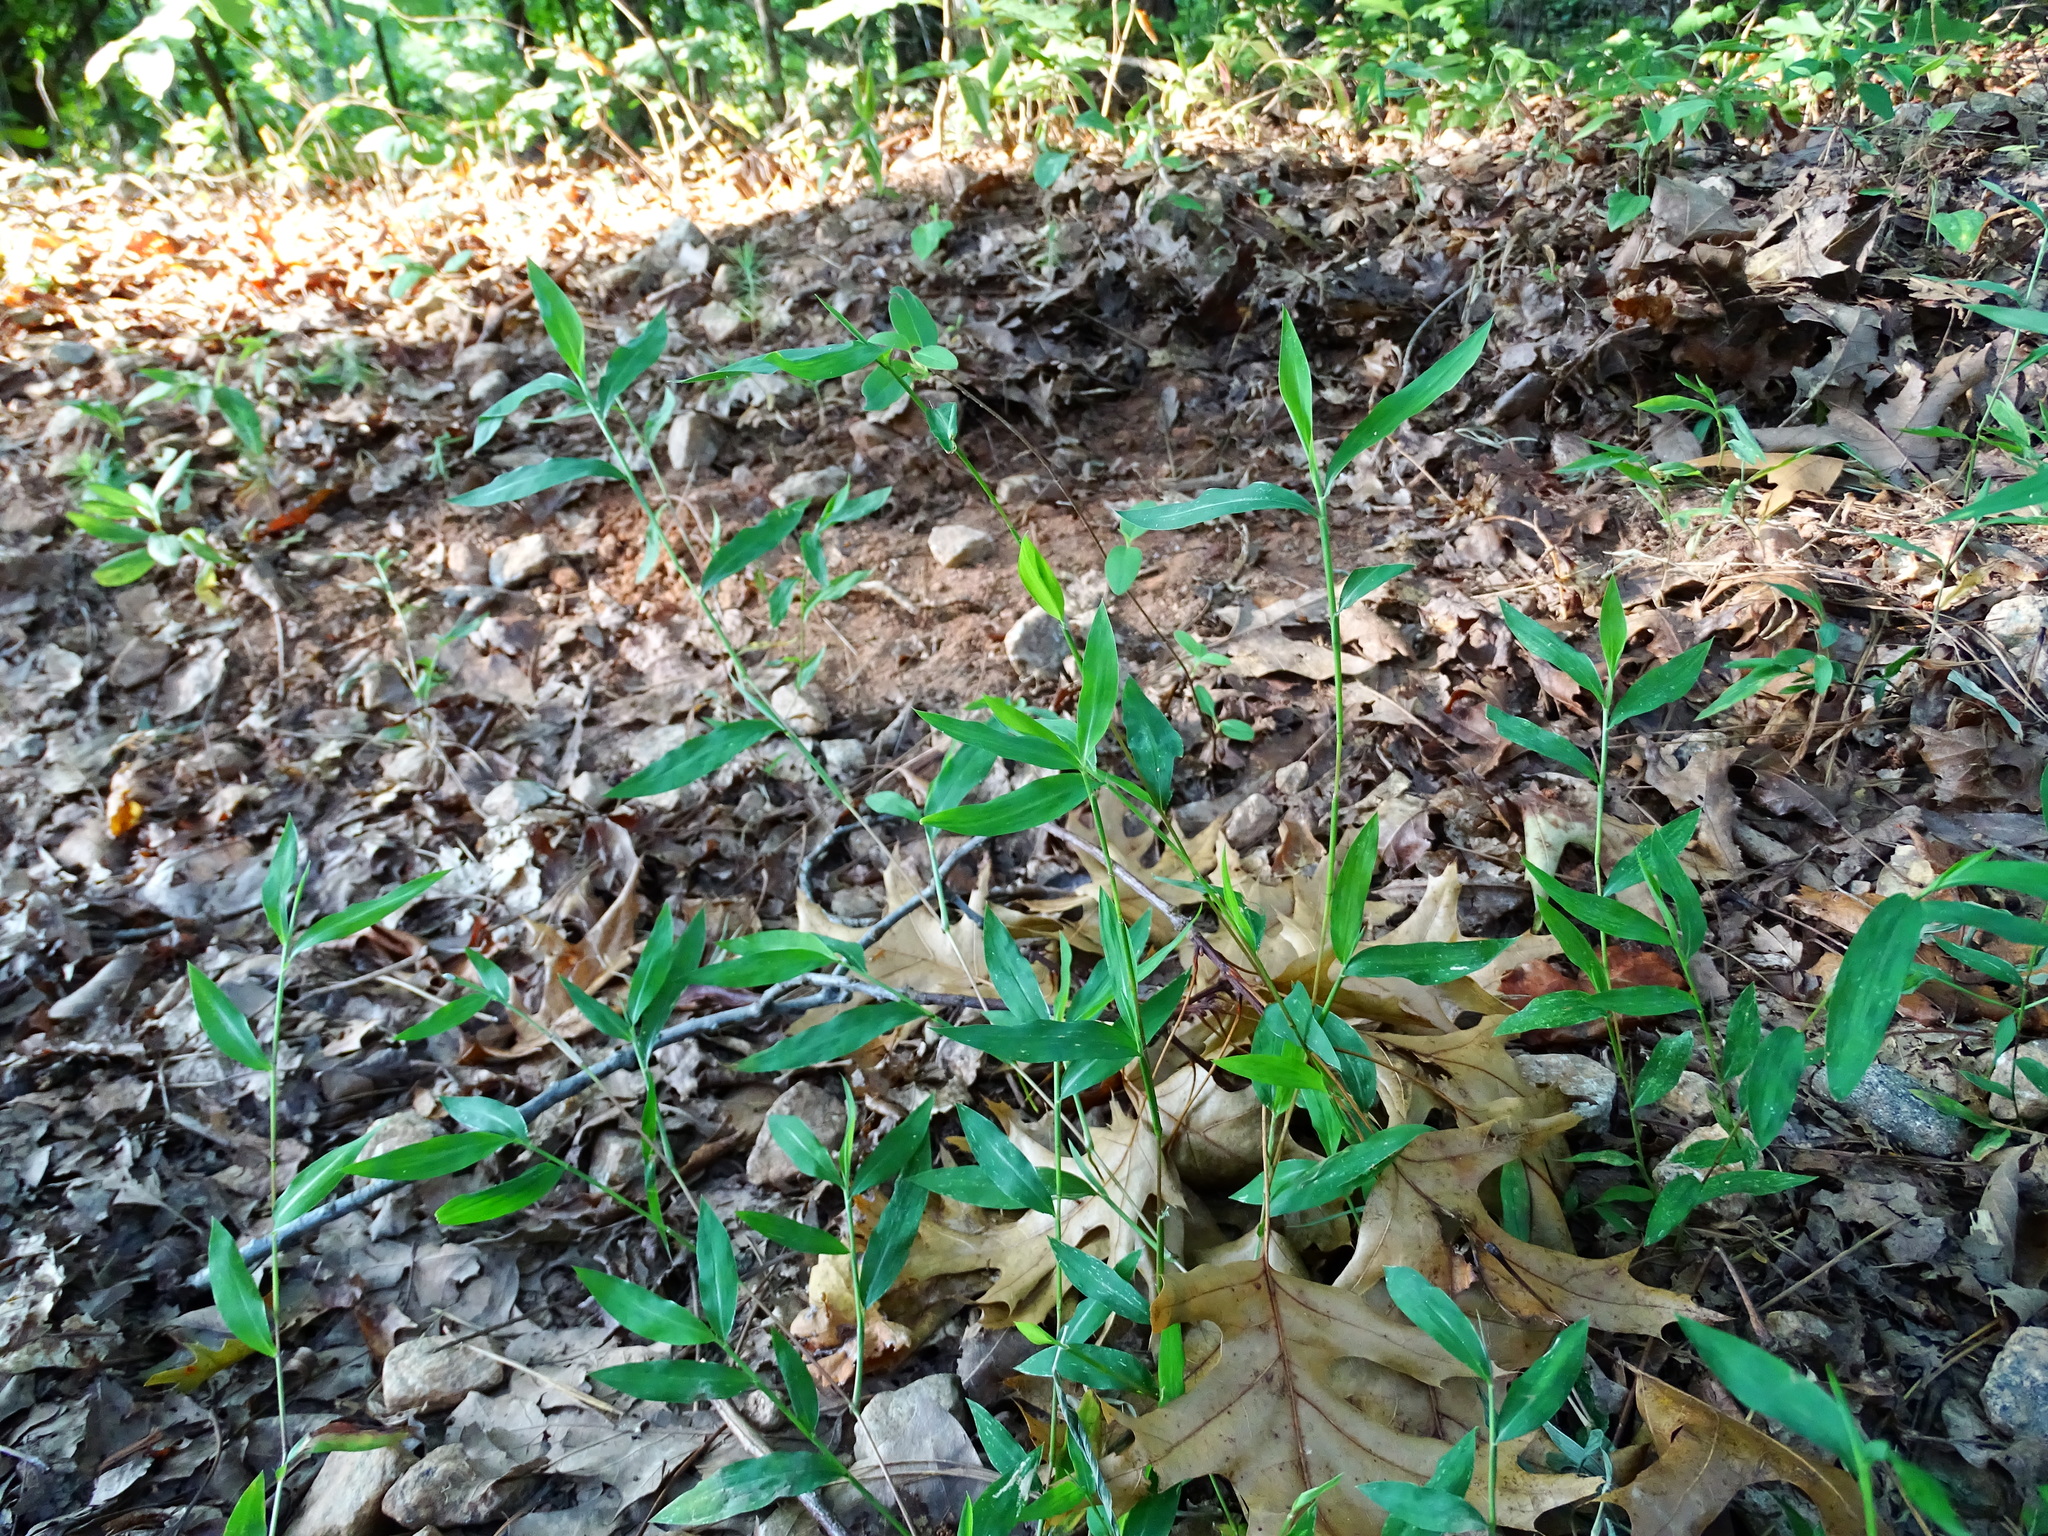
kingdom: Plantae
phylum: Tracheophyta
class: Liliopsida
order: Poales
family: Poaceae
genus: Microstegium
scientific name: Microstegium vimineum
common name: Japanese stiltgrass
